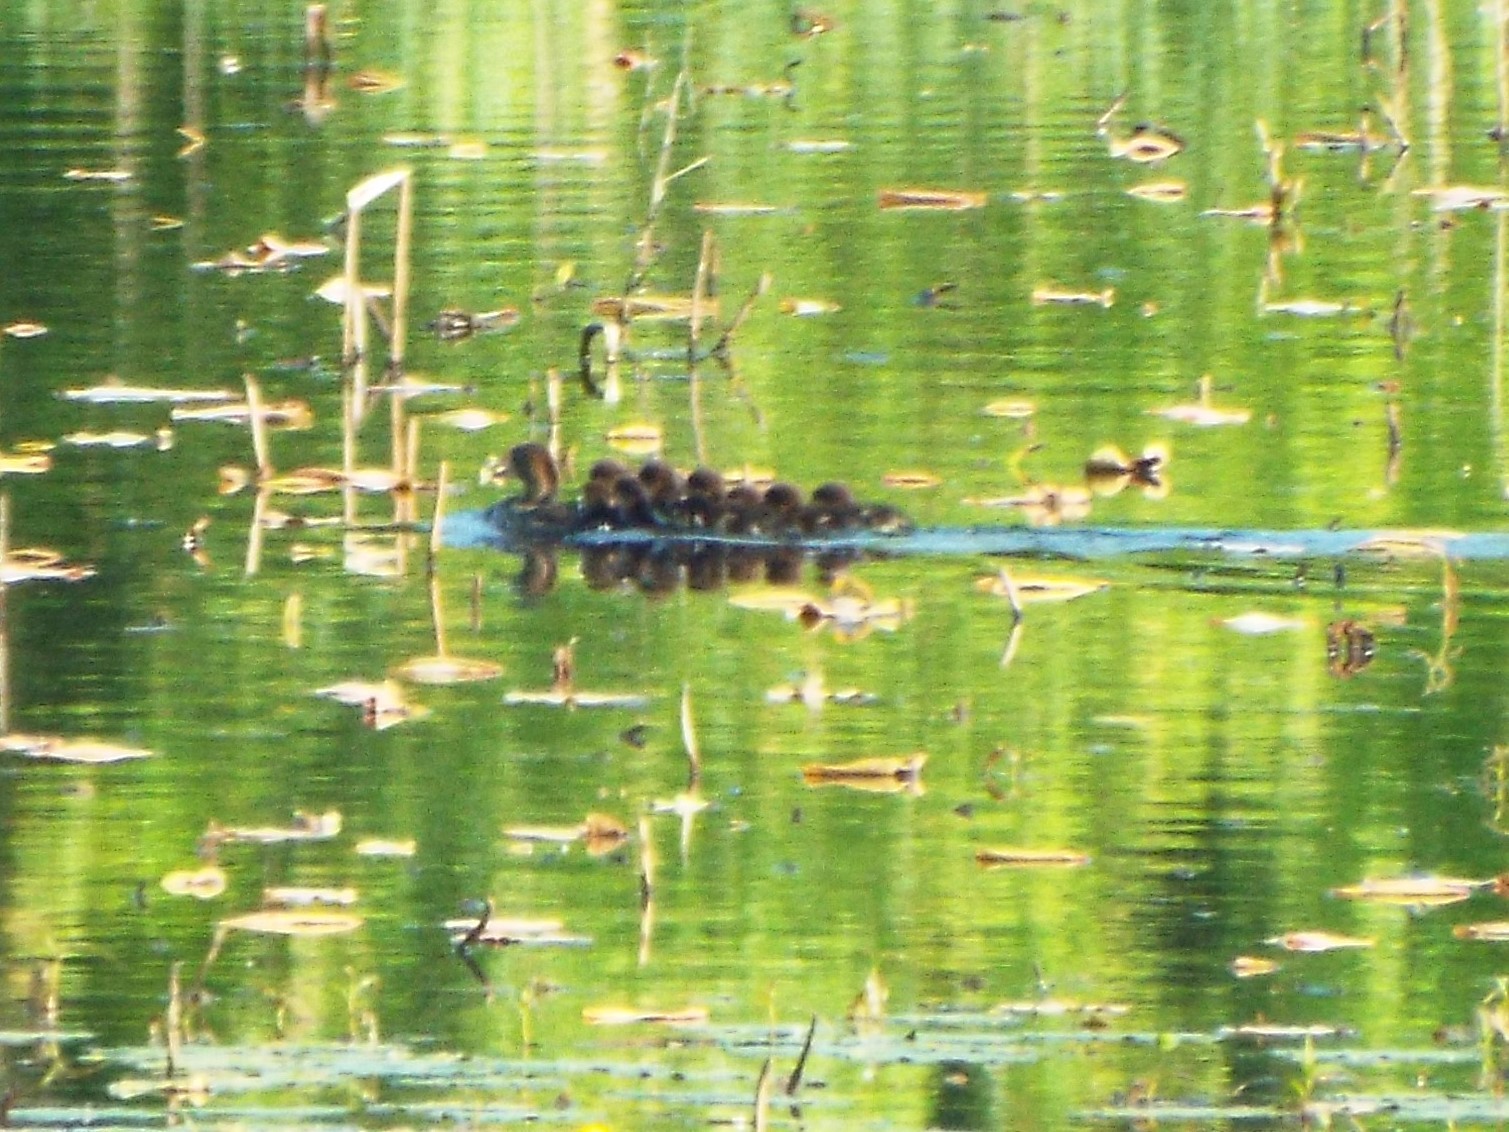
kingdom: Animalia
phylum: Chordata
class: Aves
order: Anseriformes
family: Anatidae
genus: Lophodytes
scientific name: Lophodytes cucullatus
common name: Hooded merganser
